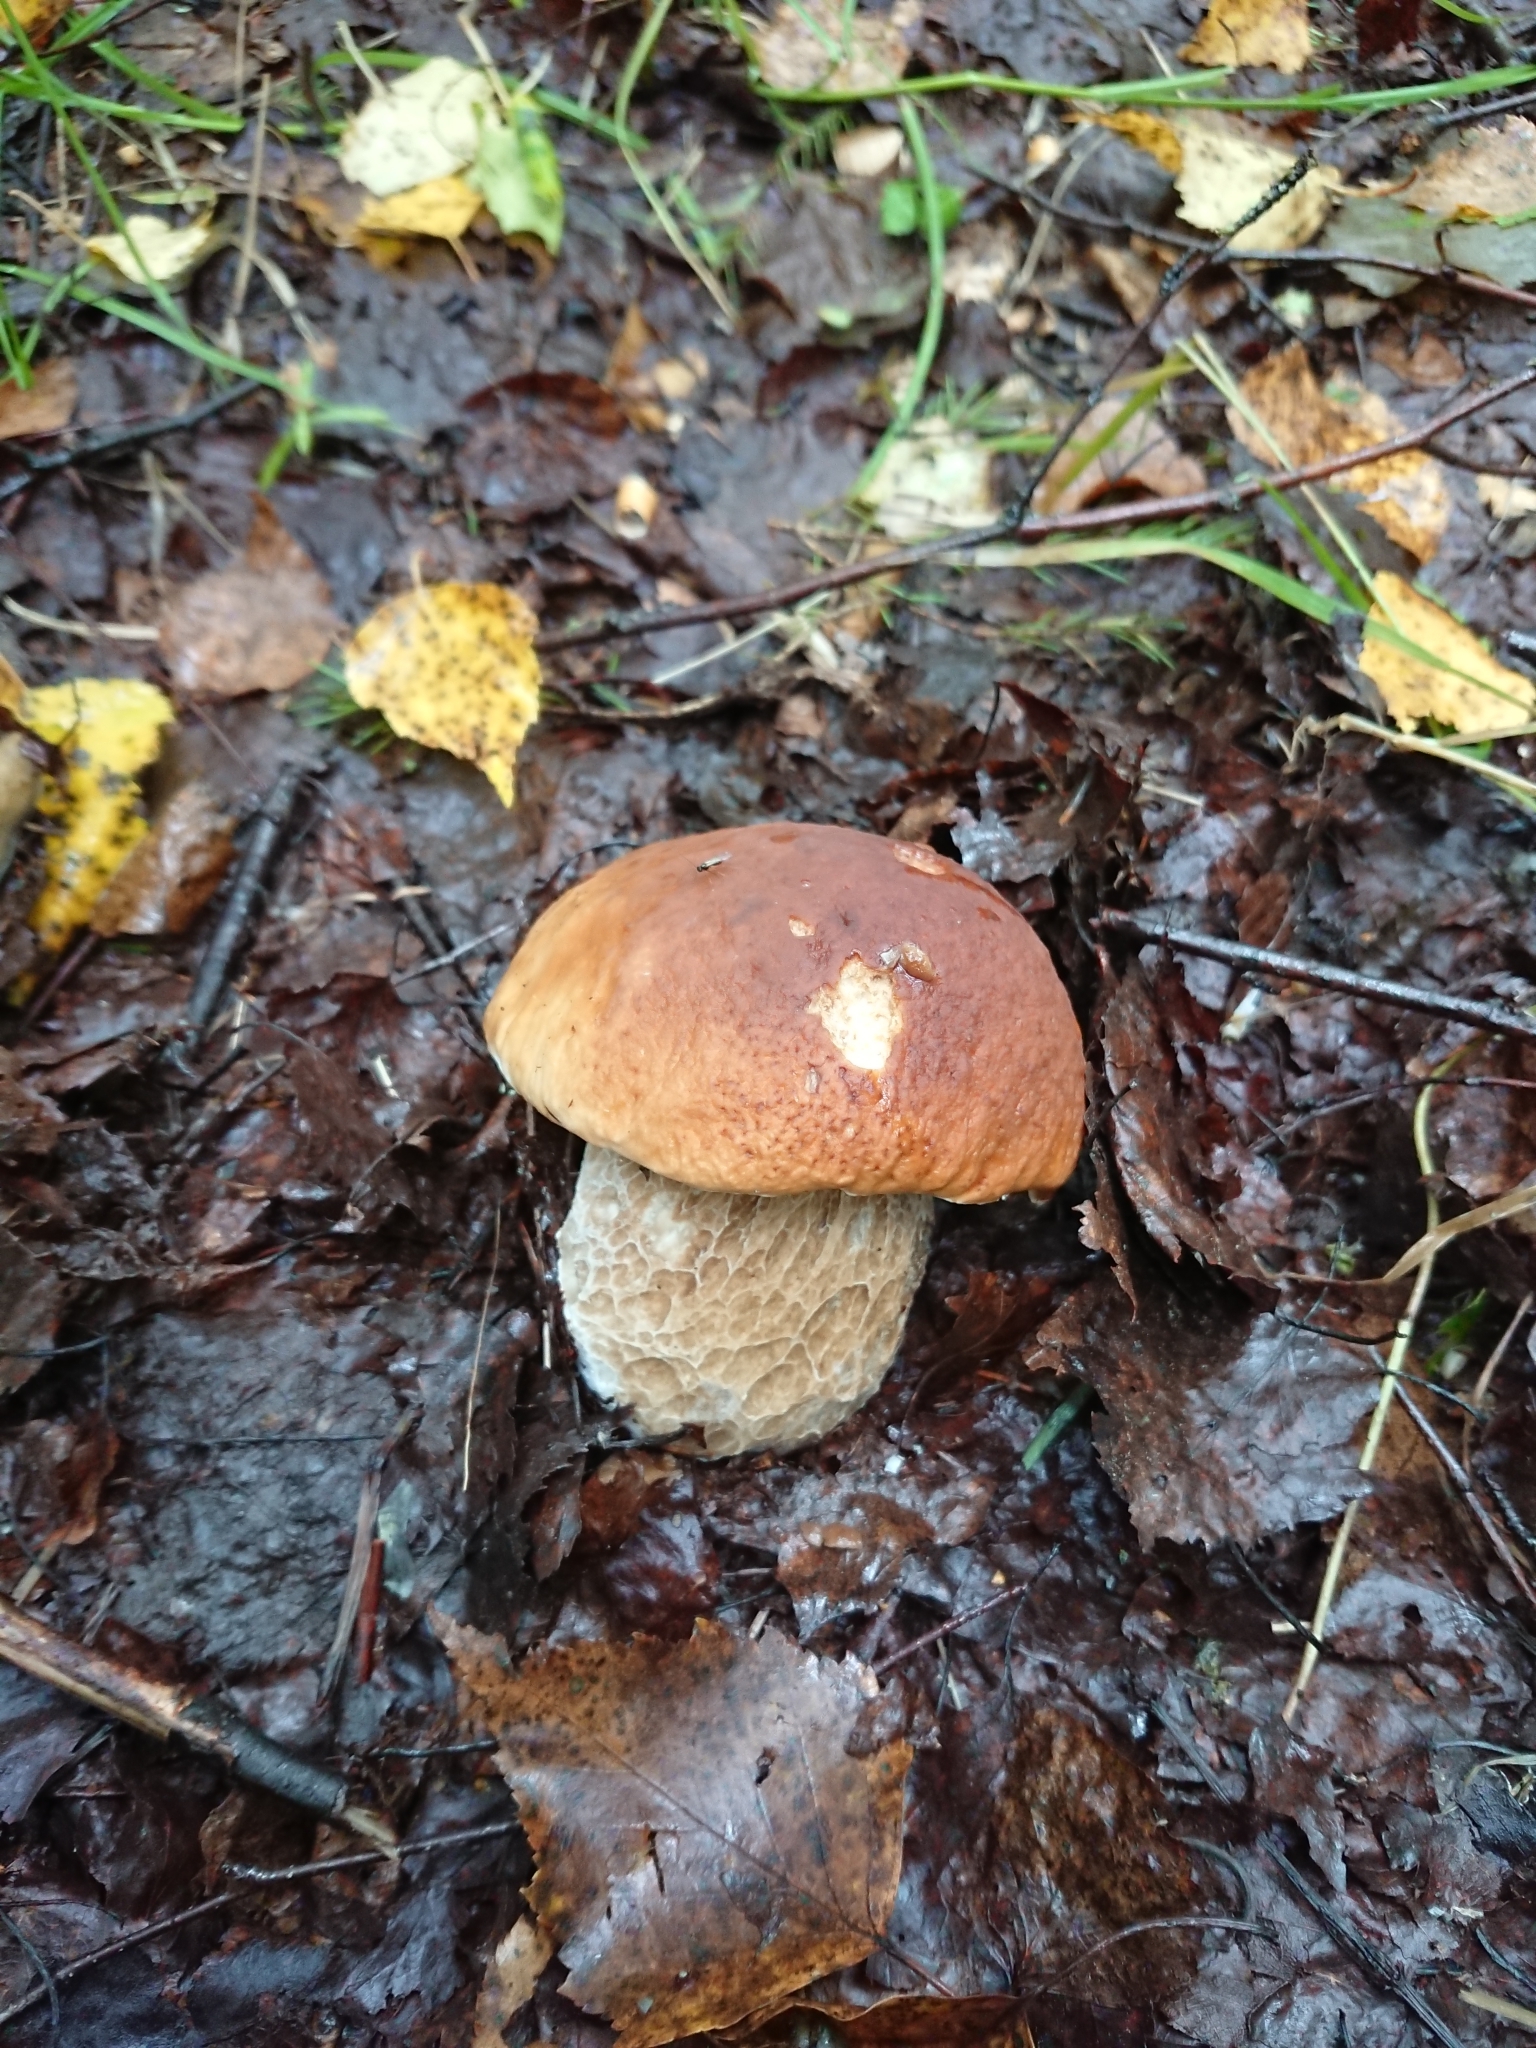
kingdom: Fungi
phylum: Basidiomycota
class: Agaricomycetes
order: Boletales
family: Boletaceae
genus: Boletus
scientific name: Boletus edulis
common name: Cep
